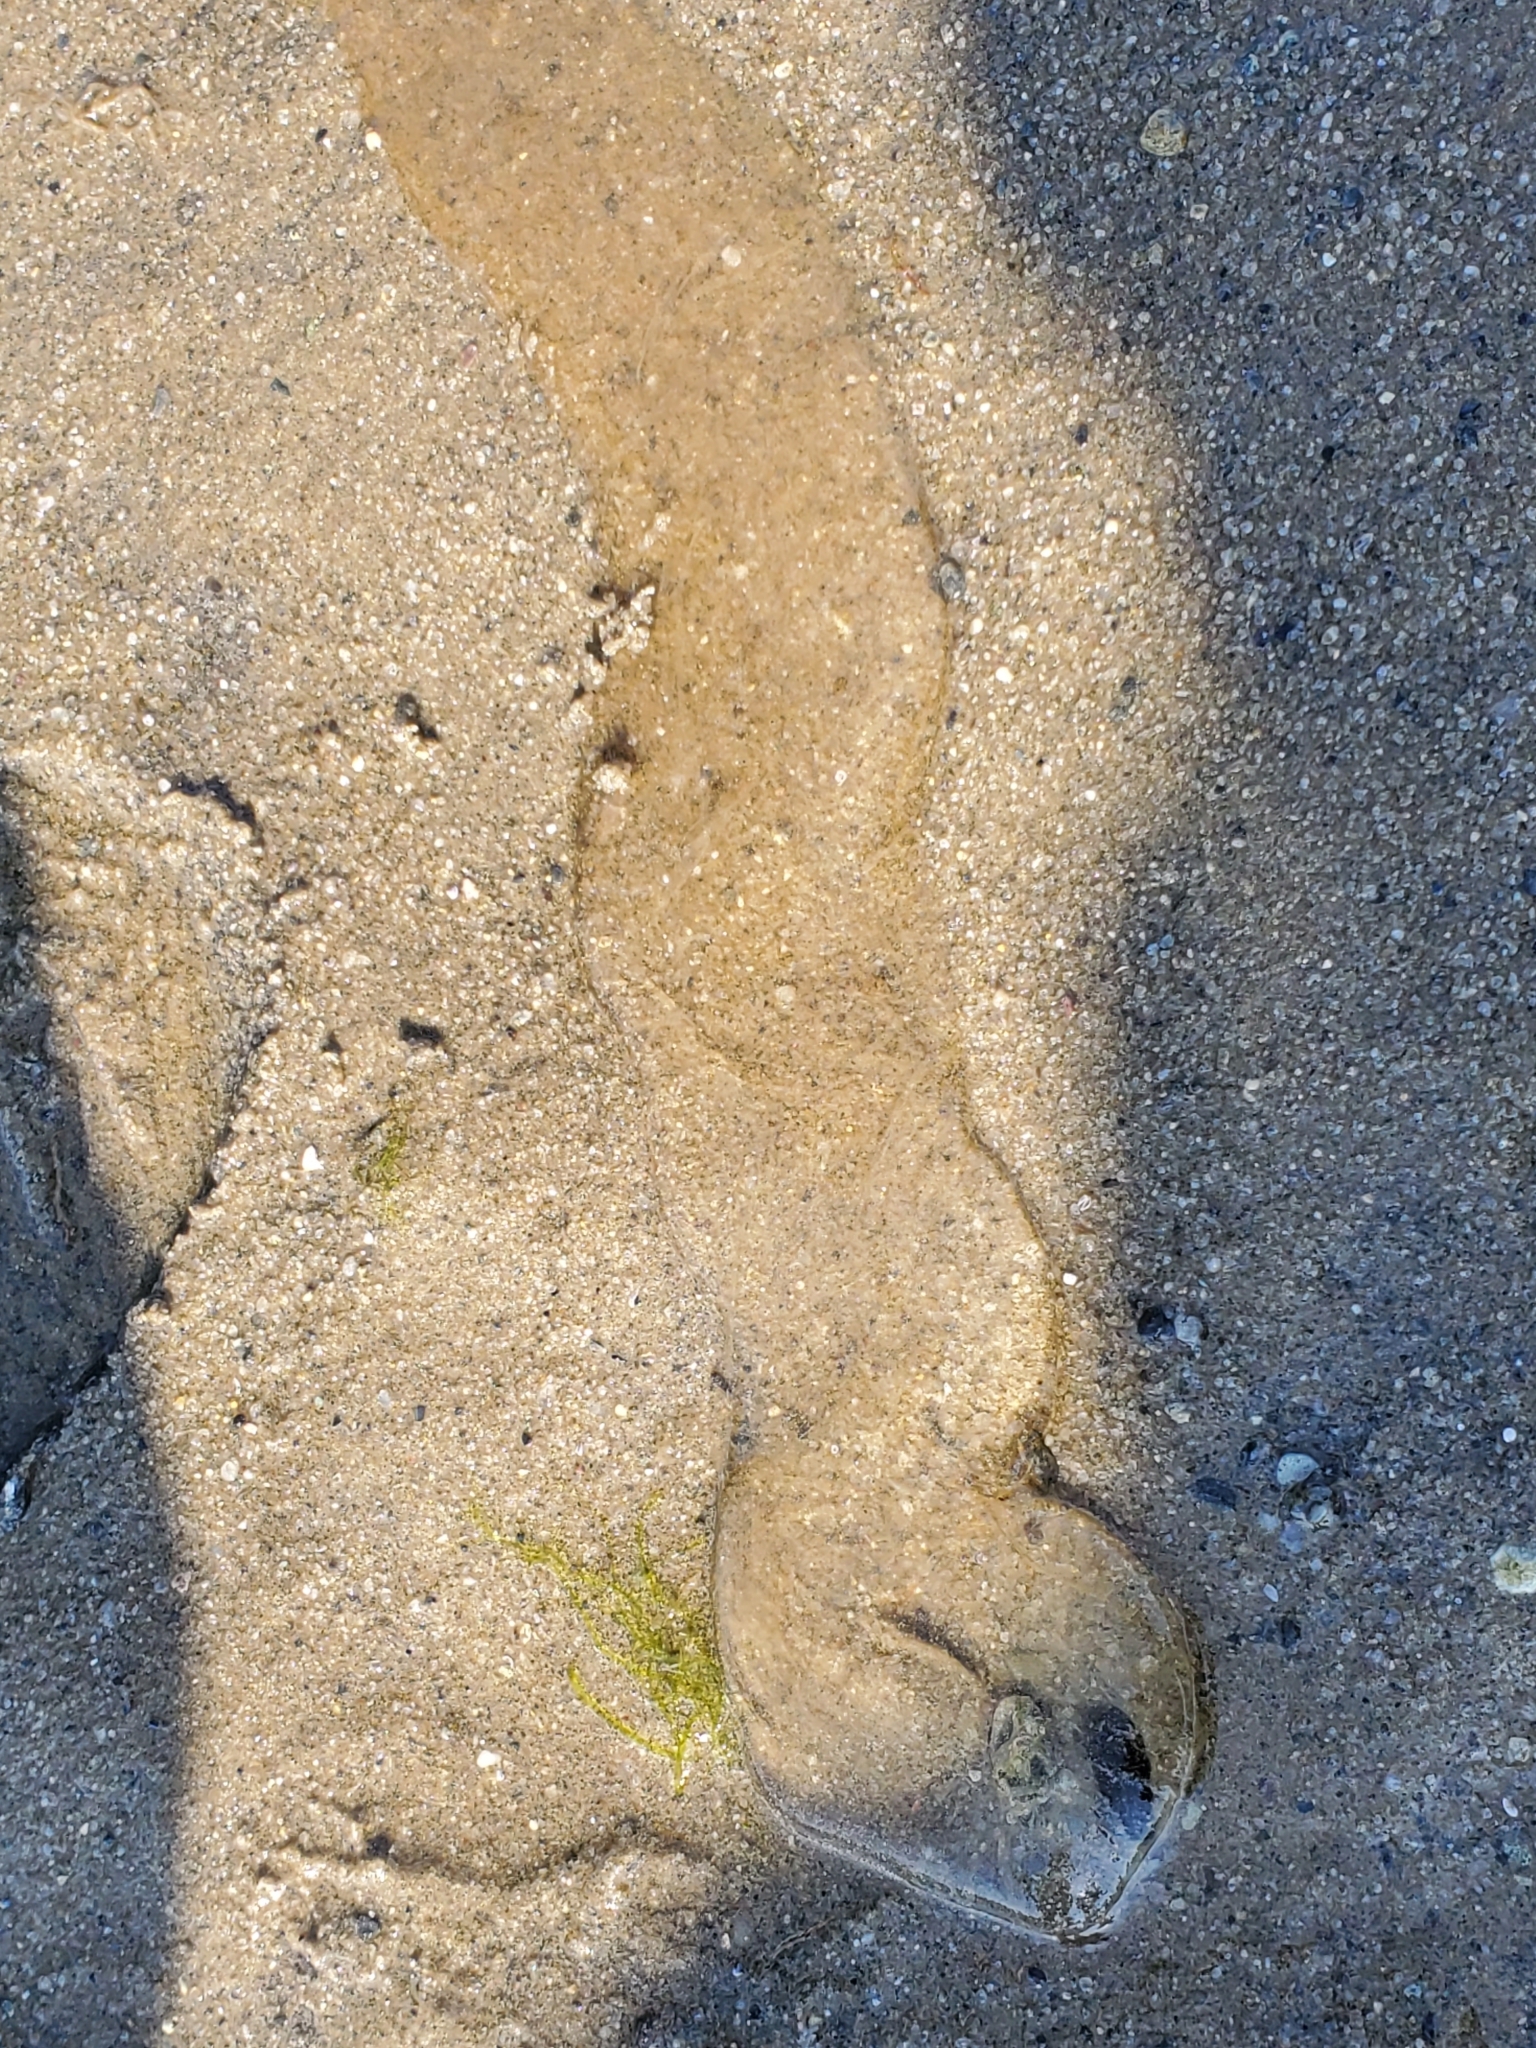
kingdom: Animalia
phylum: Annelida
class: Polychaeta
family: Arenicolidae
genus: Arenicola
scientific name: Arenicola marina
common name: Blow lugworm
